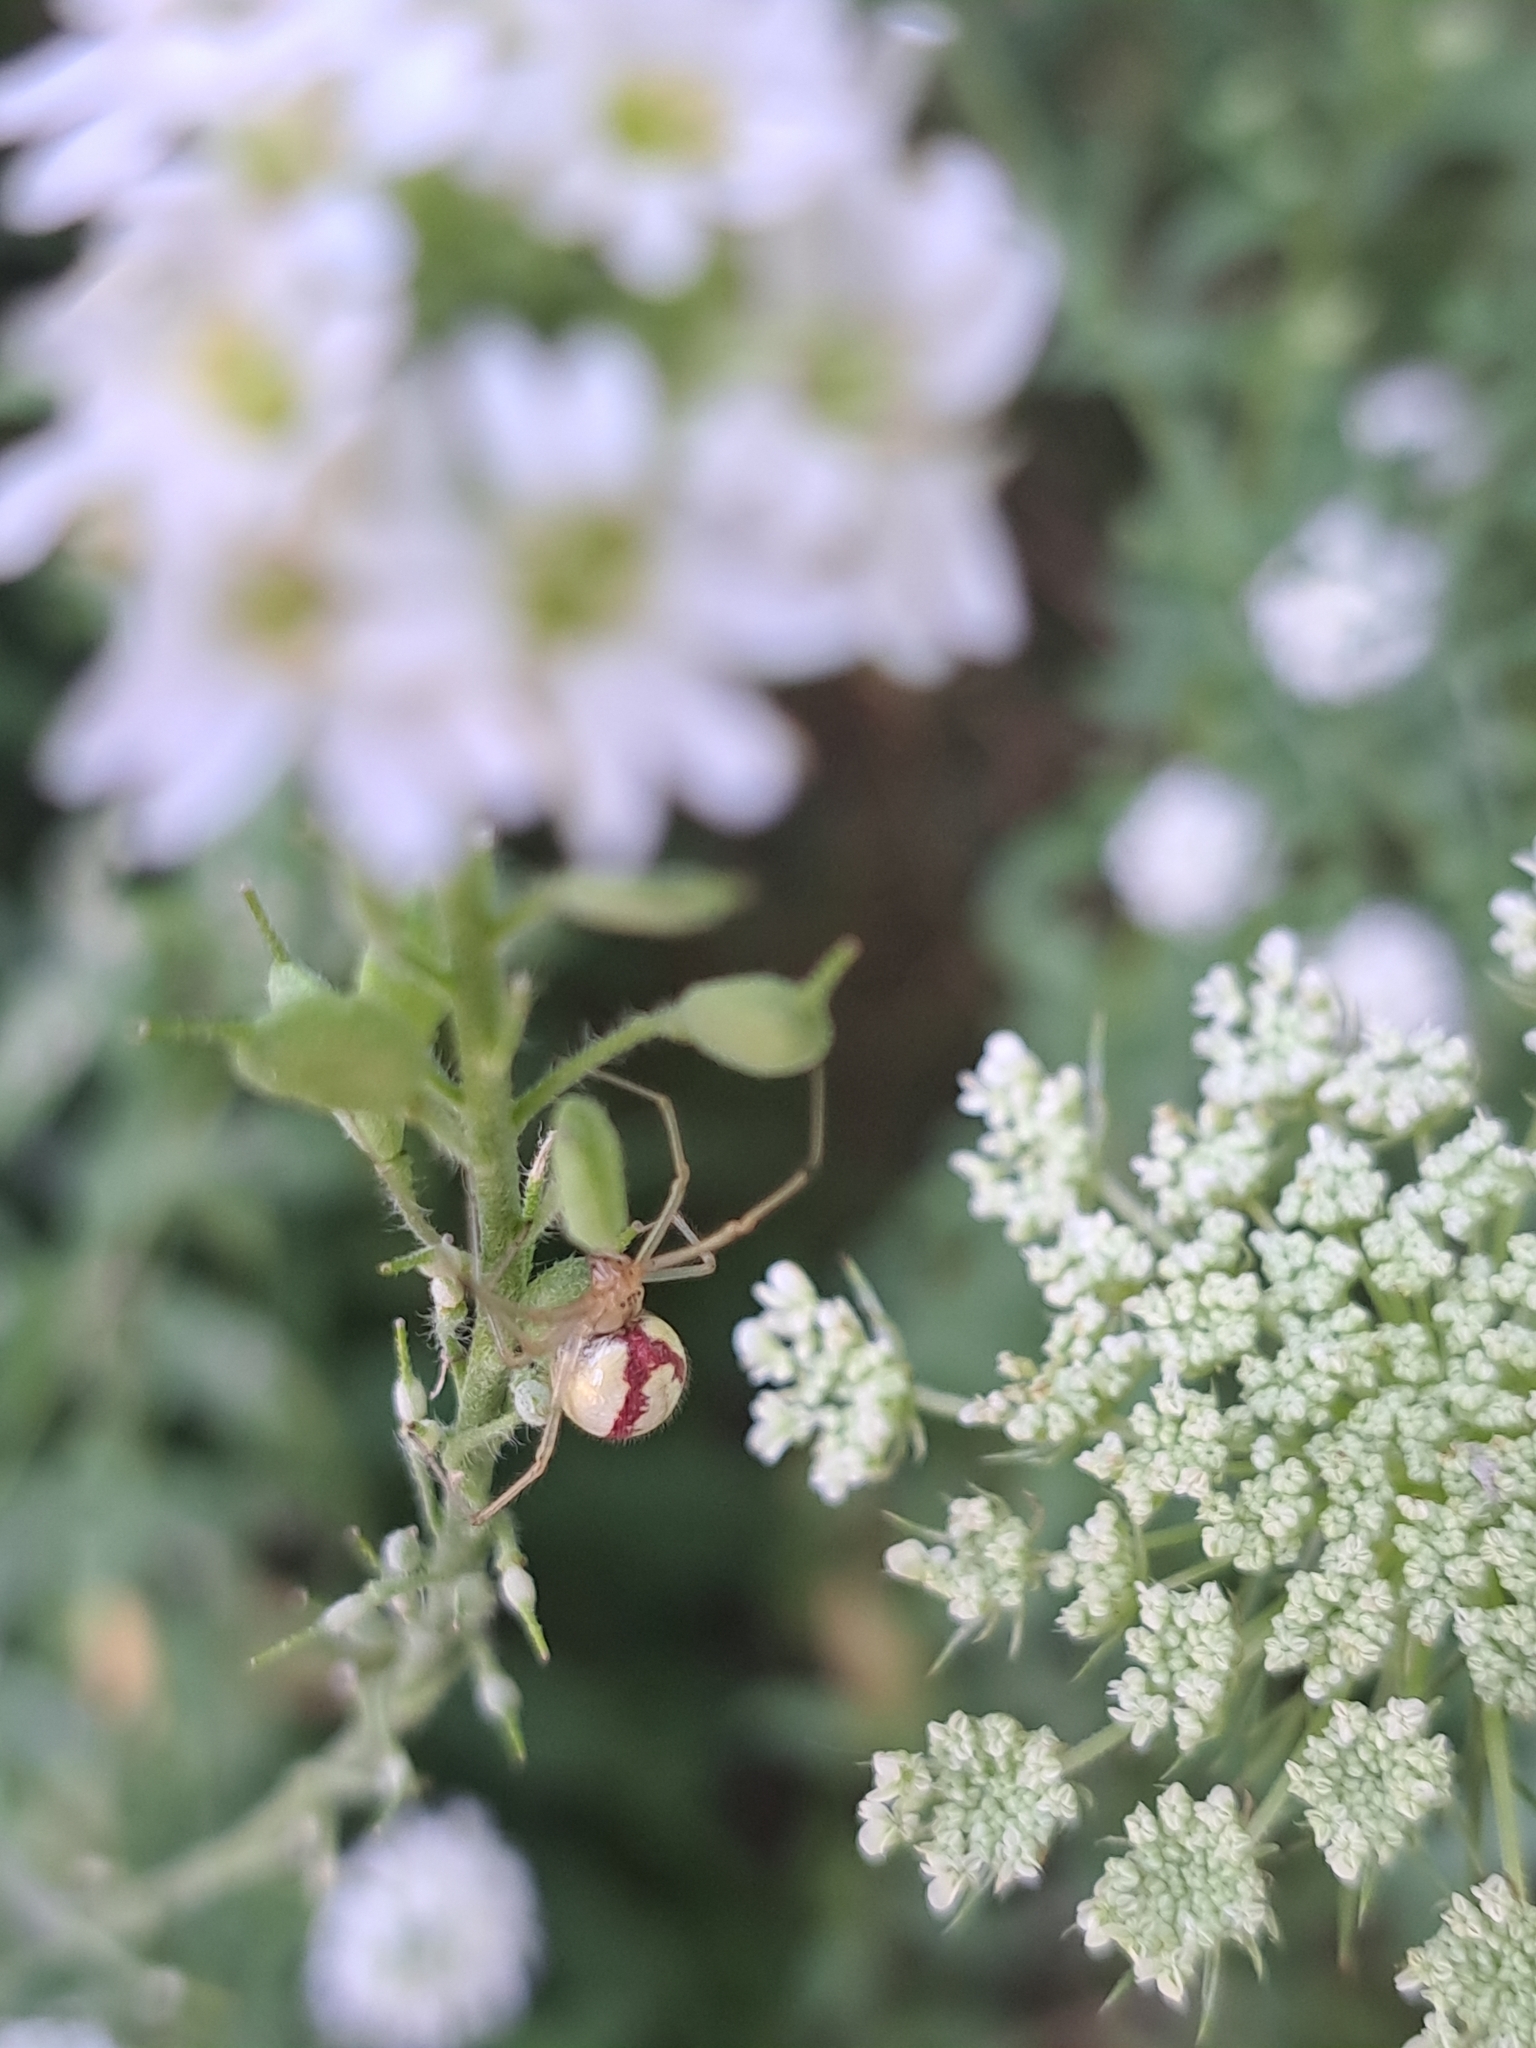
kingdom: Animalia
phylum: Arthropoda
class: Arachnida
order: Araneae
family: Theridiidae
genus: Enoplognatha
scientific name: Enoplognatha ovata
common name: Common candy-striped spider
